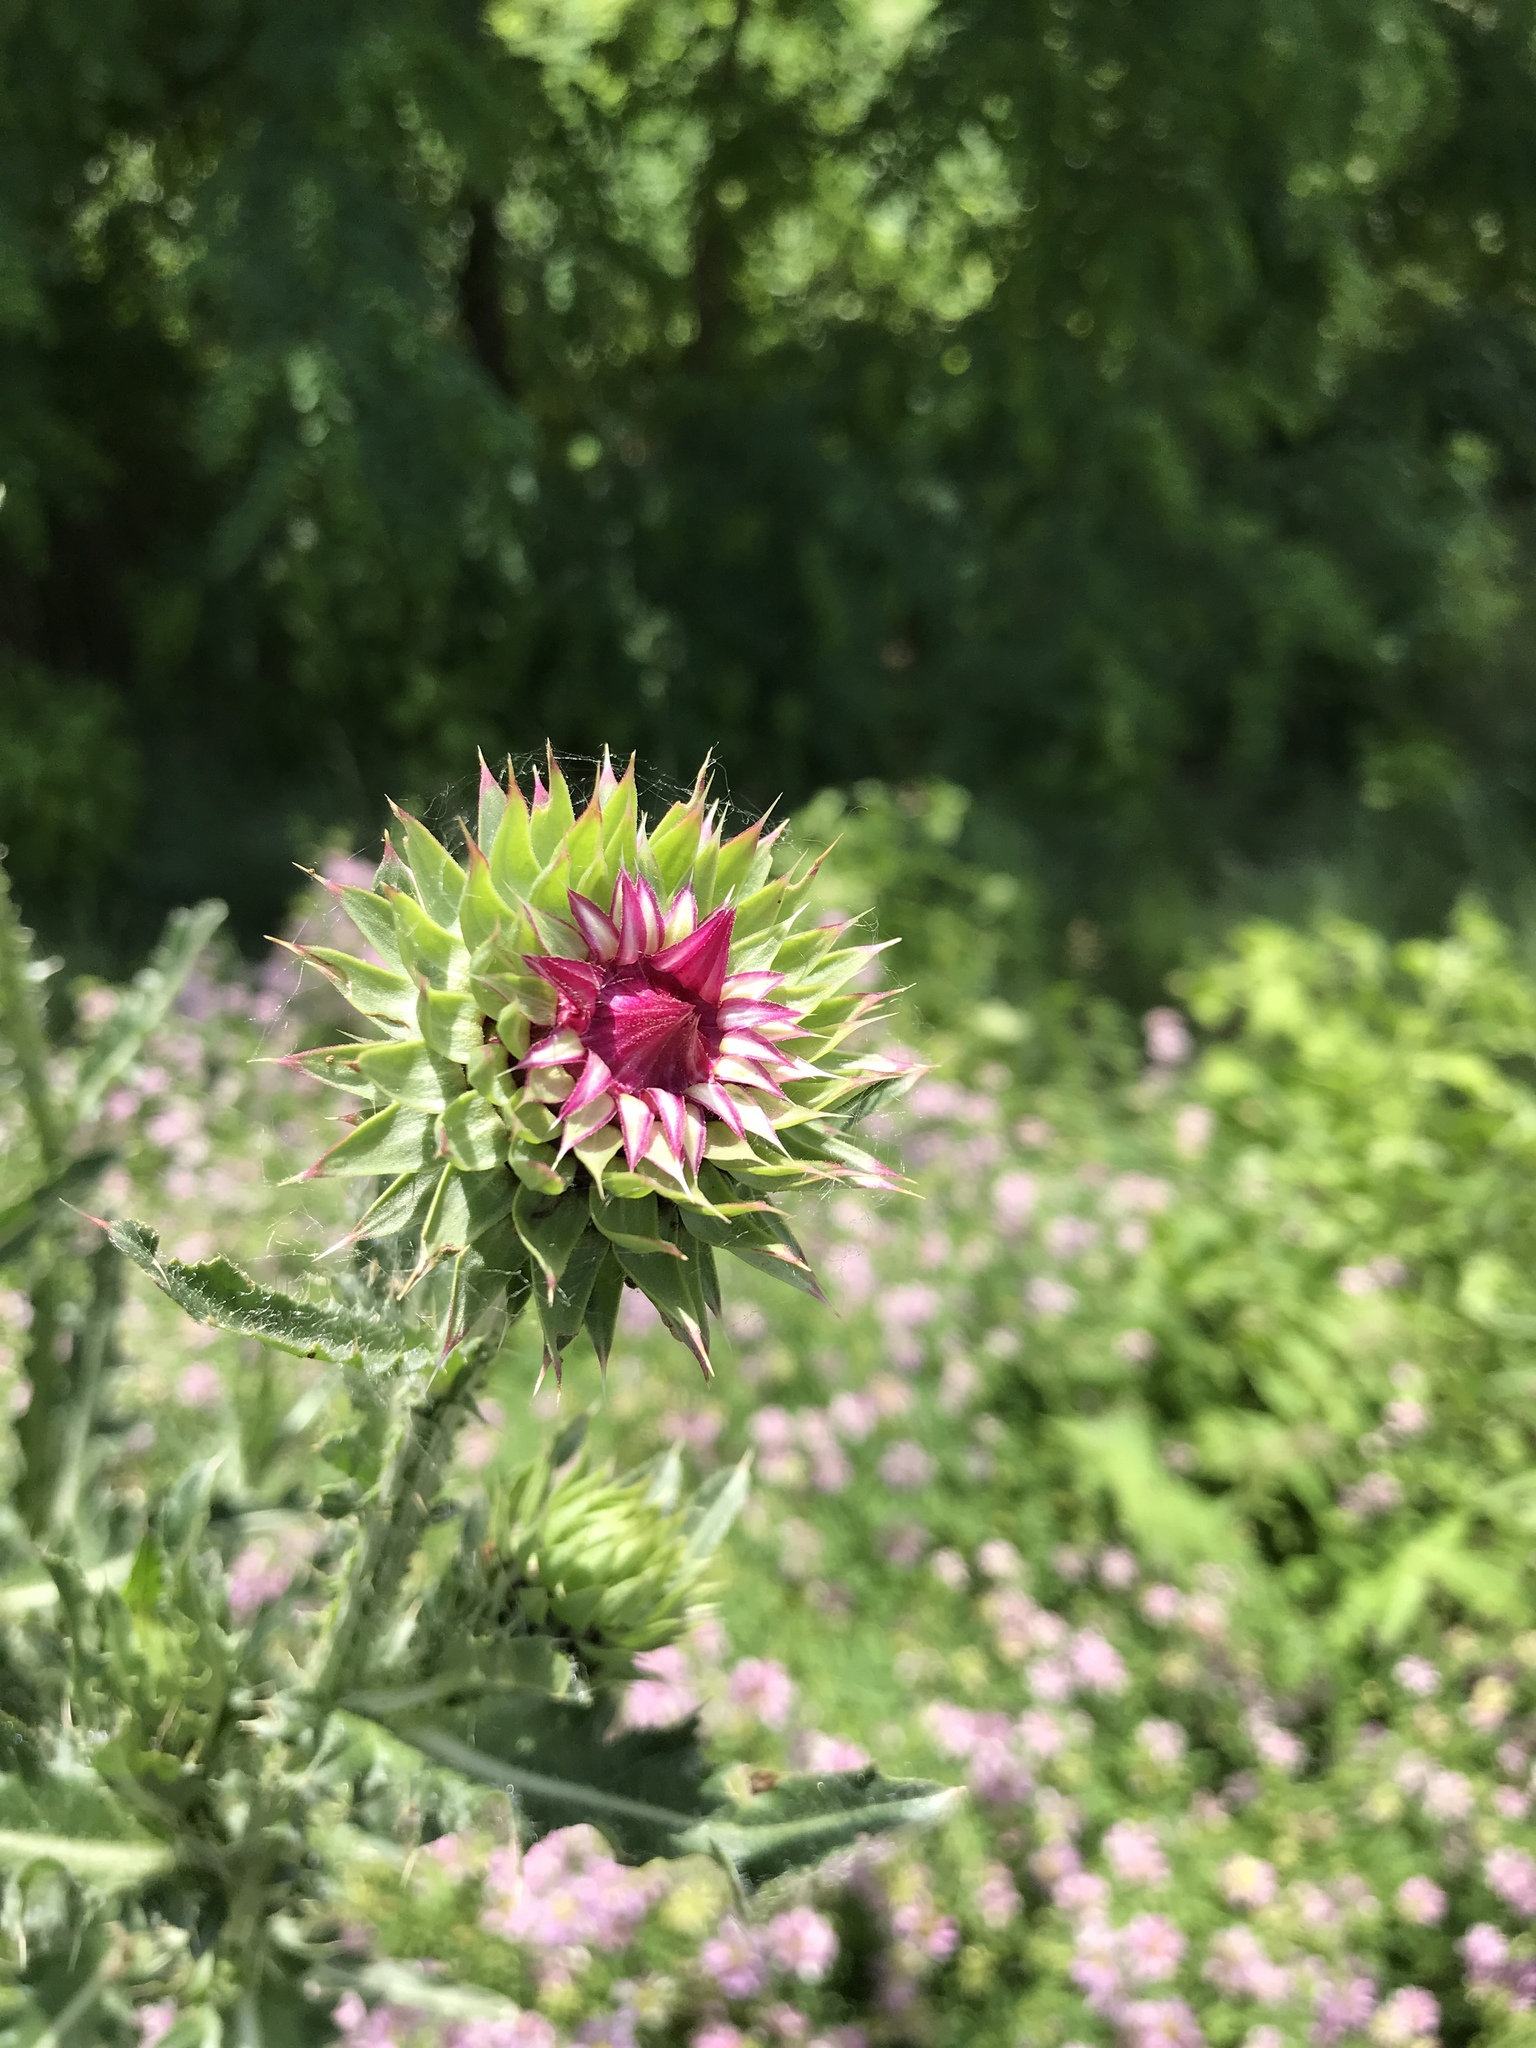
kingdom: Plantae
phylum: Tracheophyta
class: Magnoliopsida
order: Asterales
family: Asteraceae
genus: Carduus
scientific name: Carduus nutans
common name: Musk thistle
